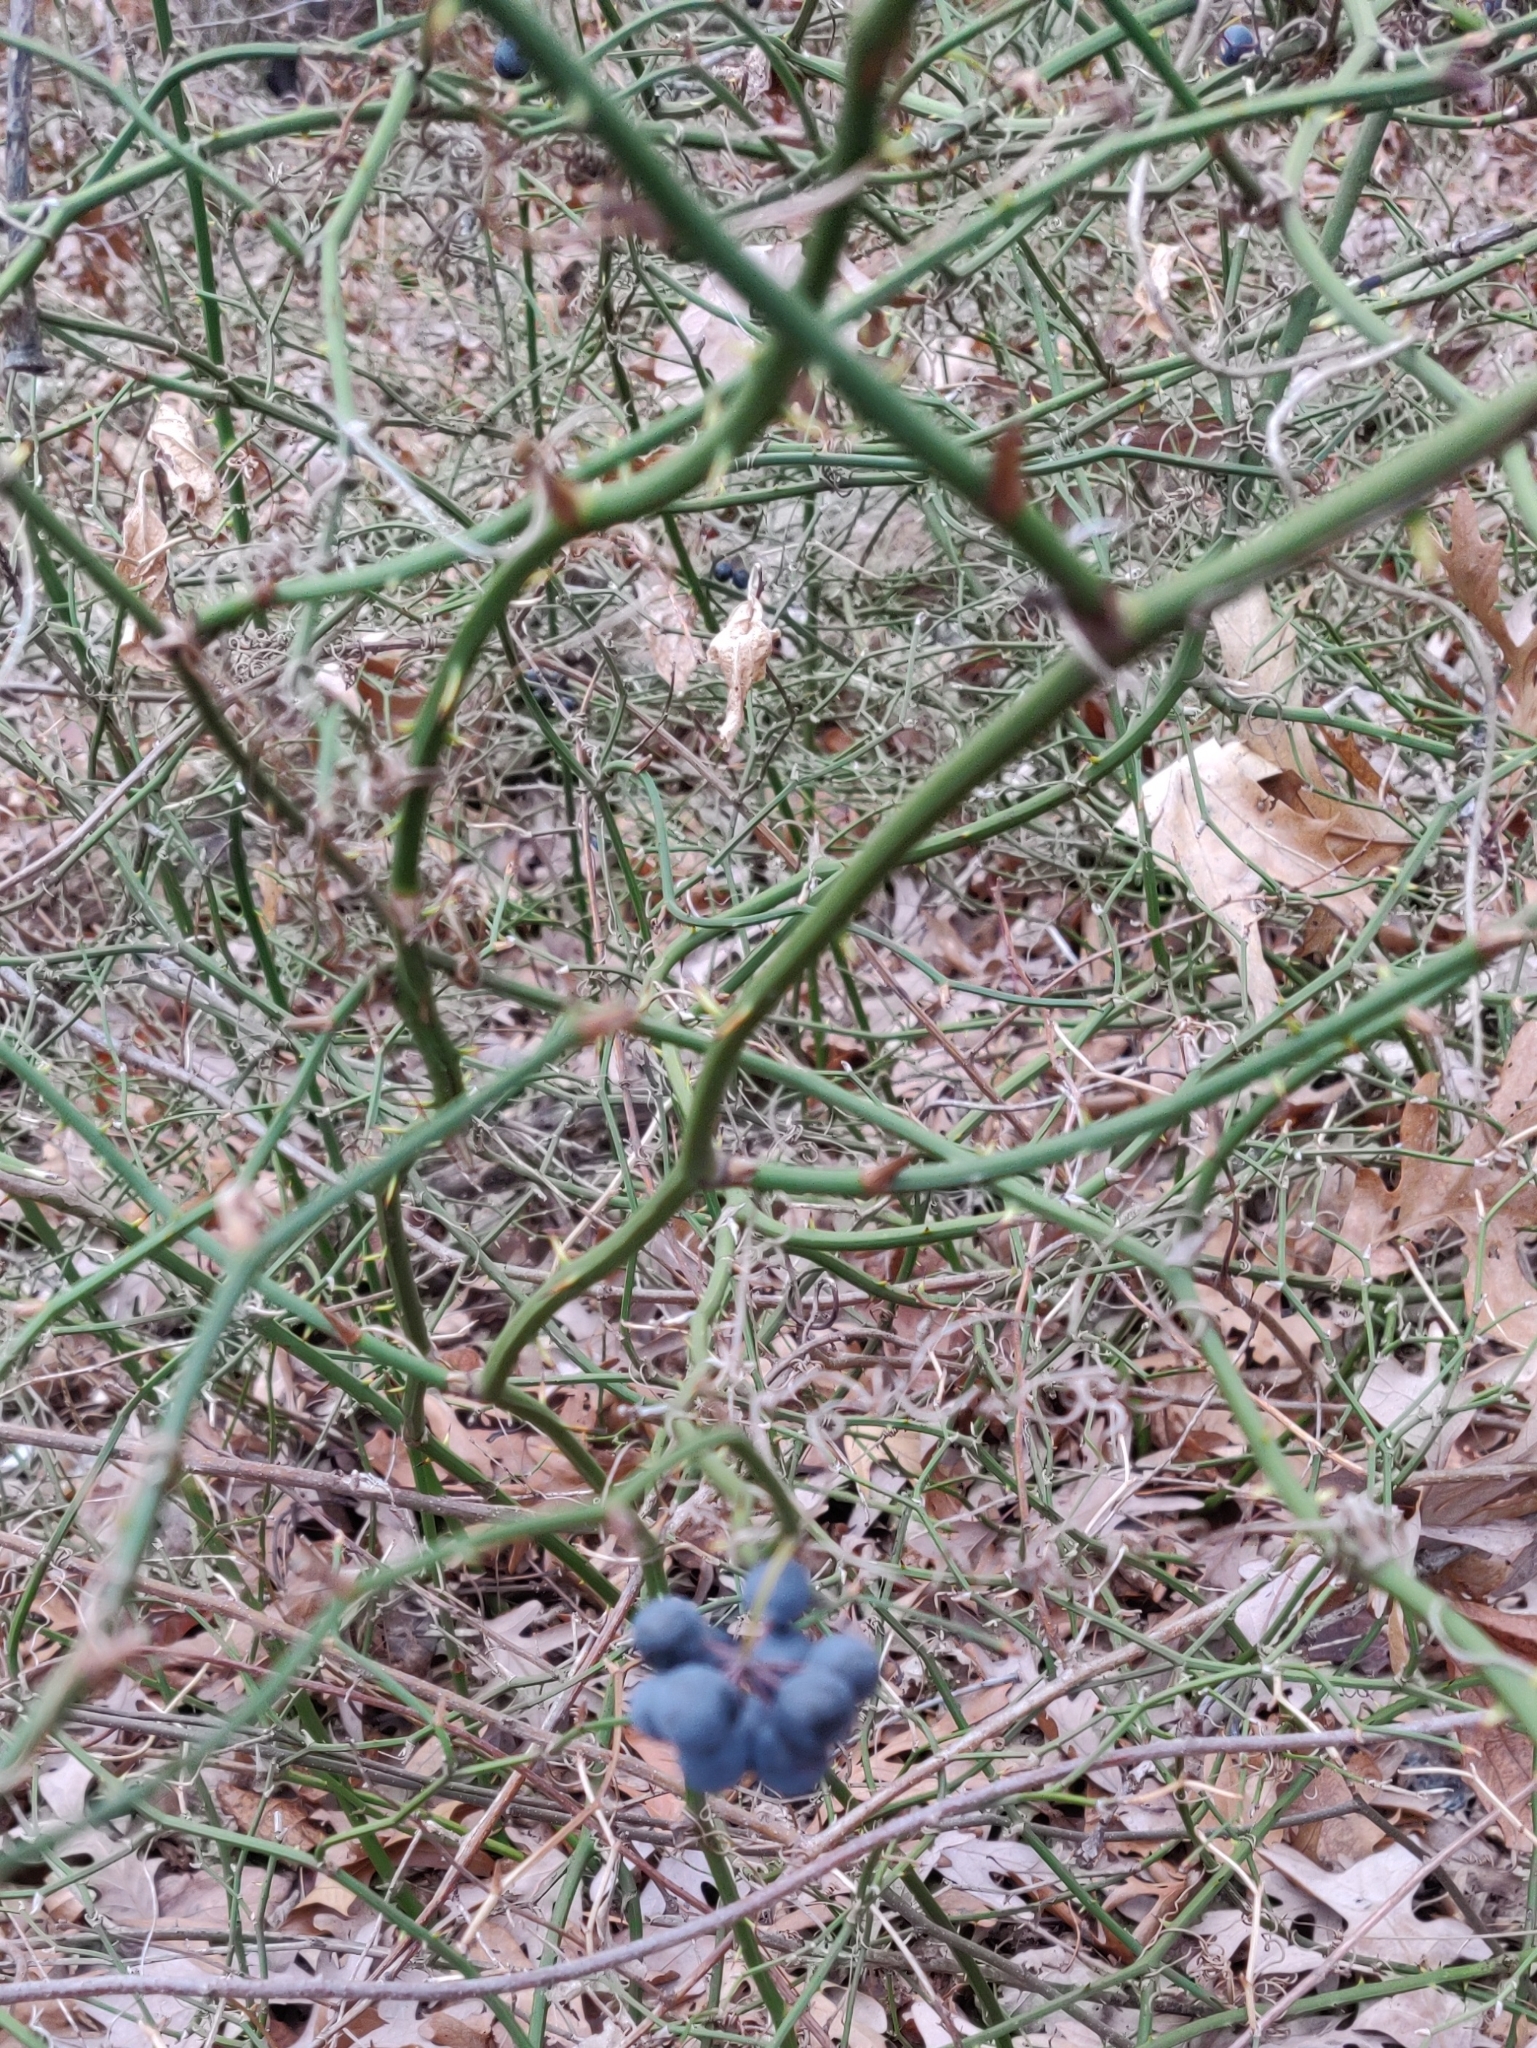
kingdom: Plantae
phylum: Tracheophyta
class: Liliopsida
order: Liliales
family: Smilacaceae
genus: Smilax
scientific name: Smilax rotundifolia
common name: Bullbriar
